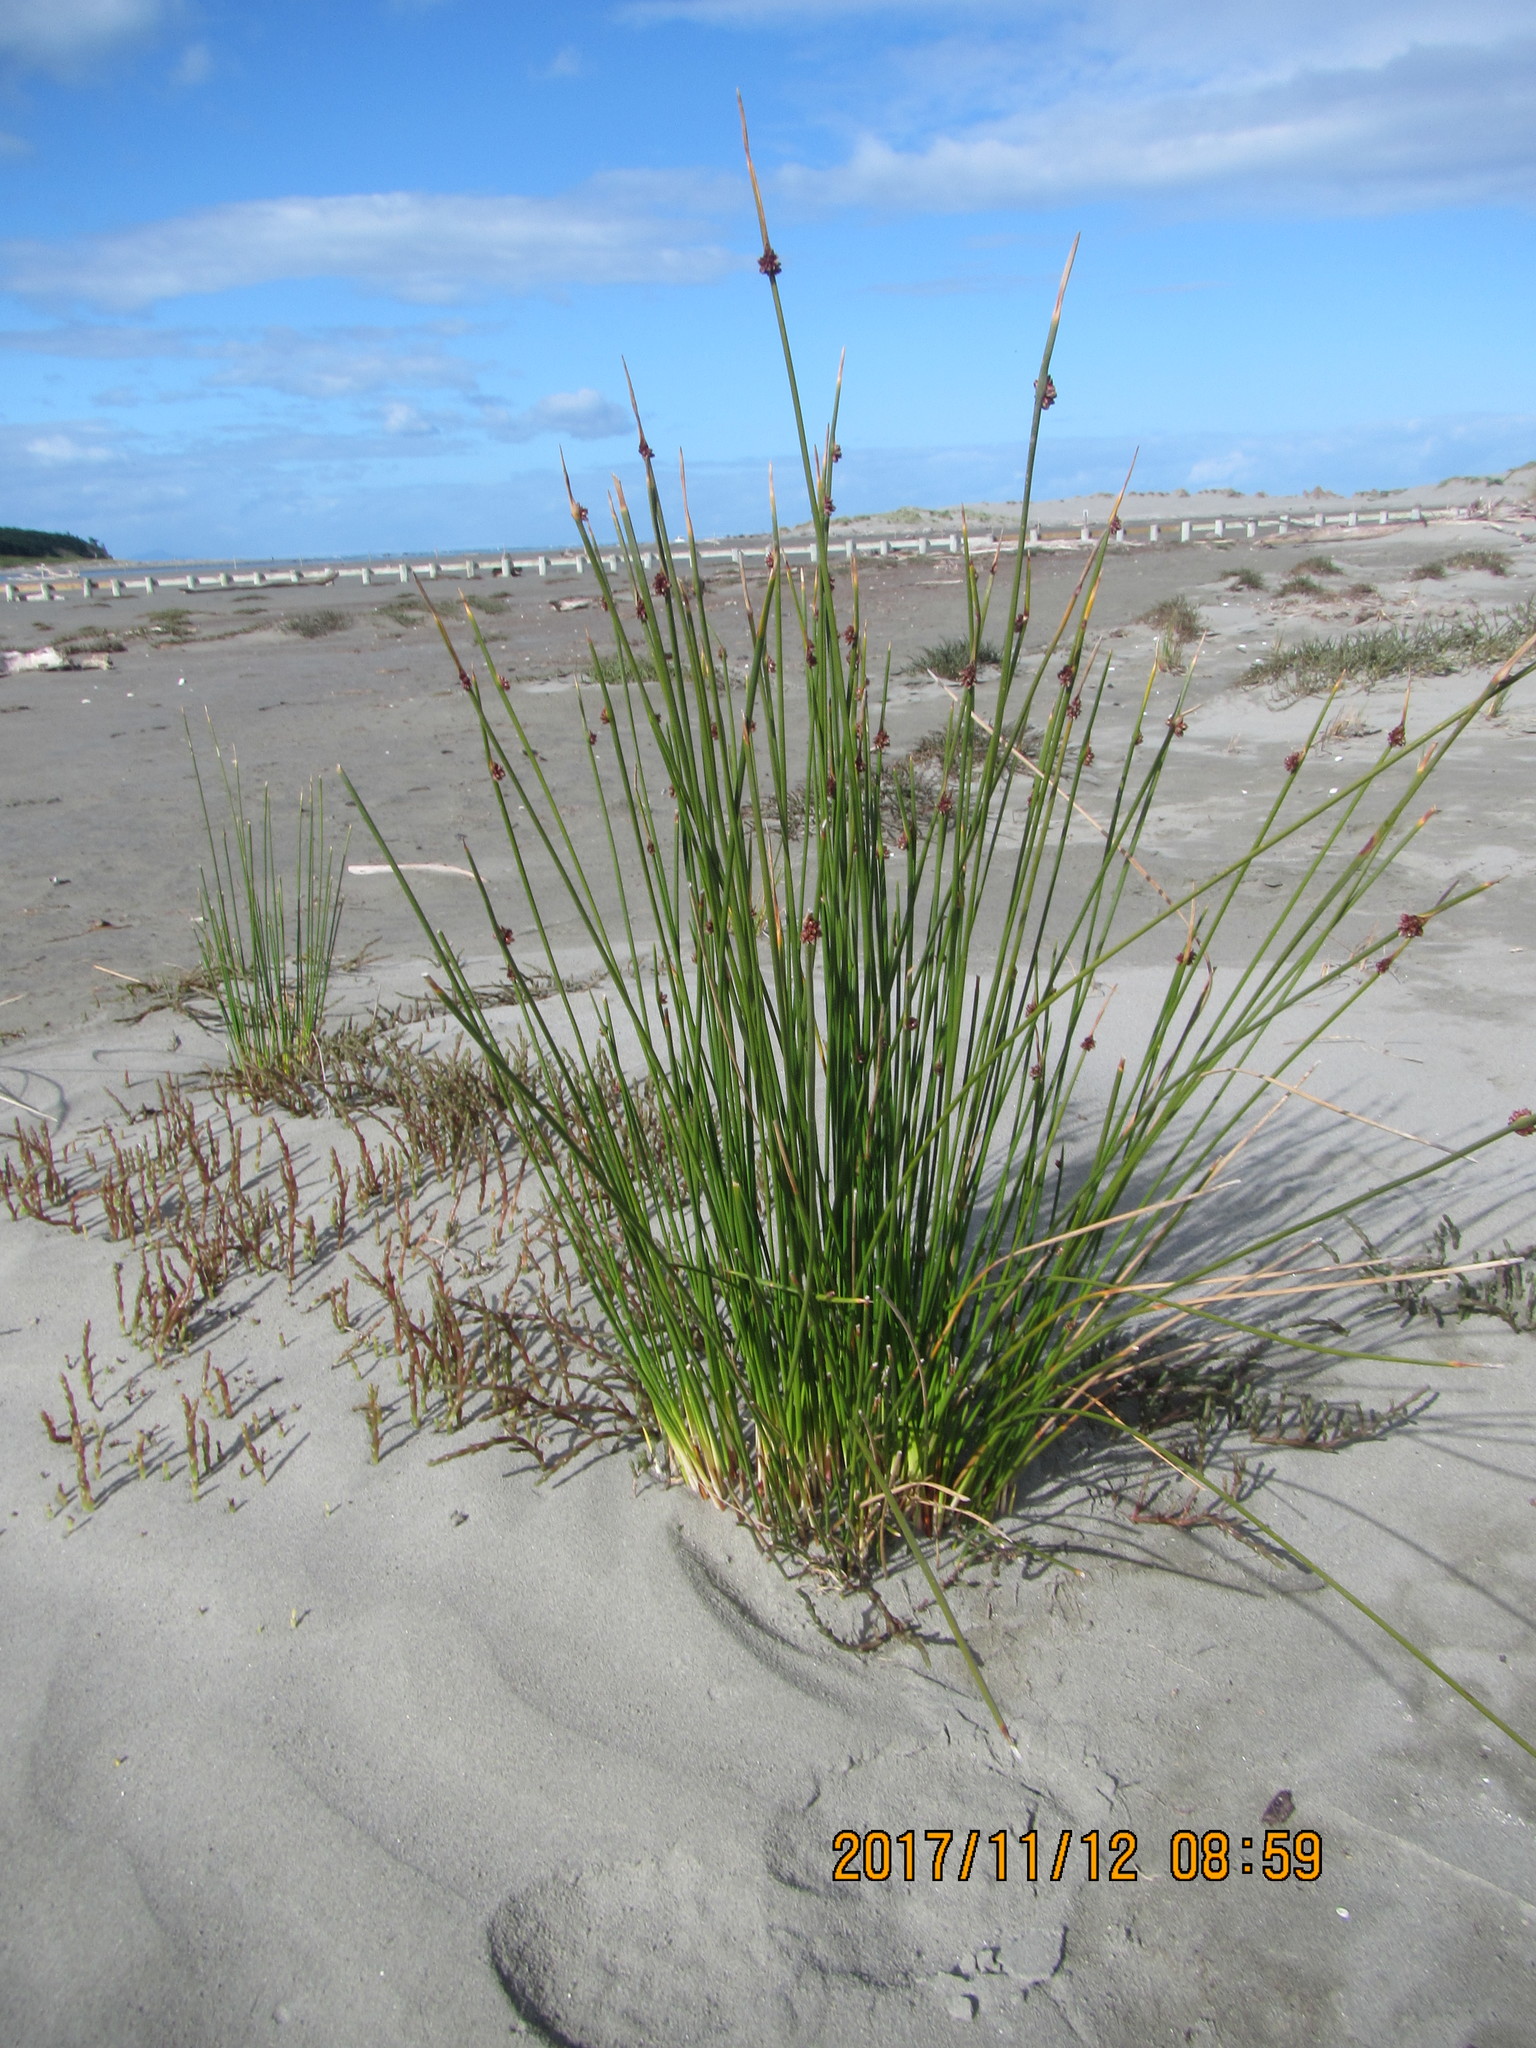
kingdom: Plantae
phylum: Tracheophyta
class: Liliopsida
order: Poales
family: Cyperaceae
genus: Ficinia
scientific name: Ficinia nodosa
